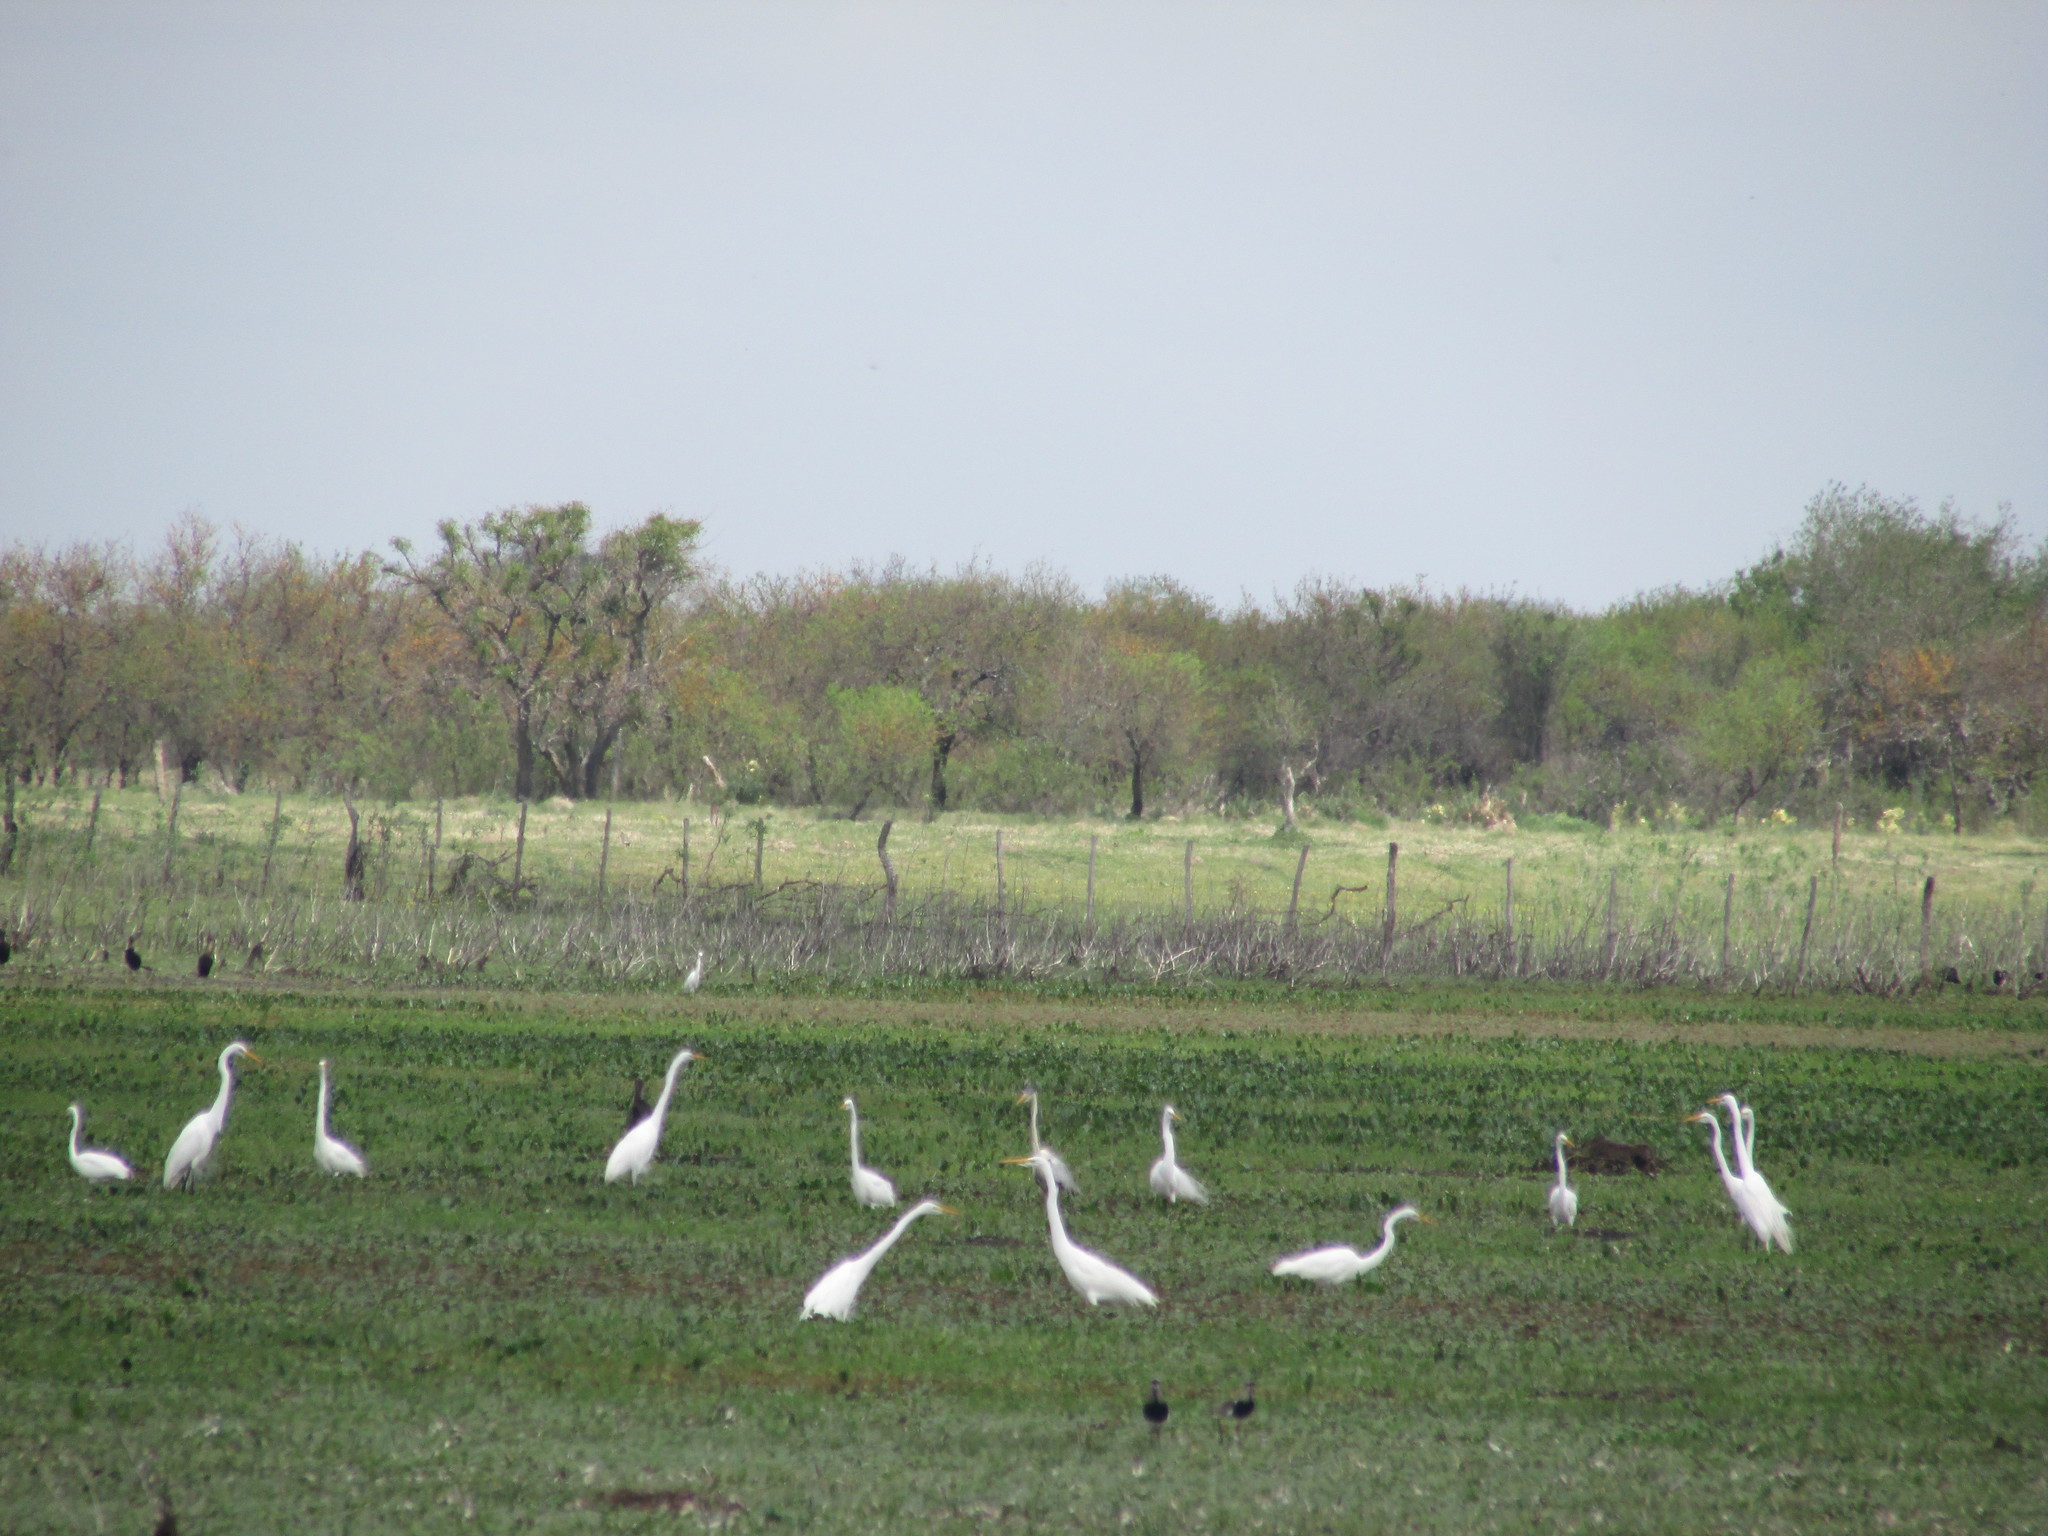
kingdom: Animalia
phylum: Chordata
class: Aves
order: Pelecaniformes
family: Ardeidae
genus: Ardea
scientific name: Ardea alba
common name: Great egret
